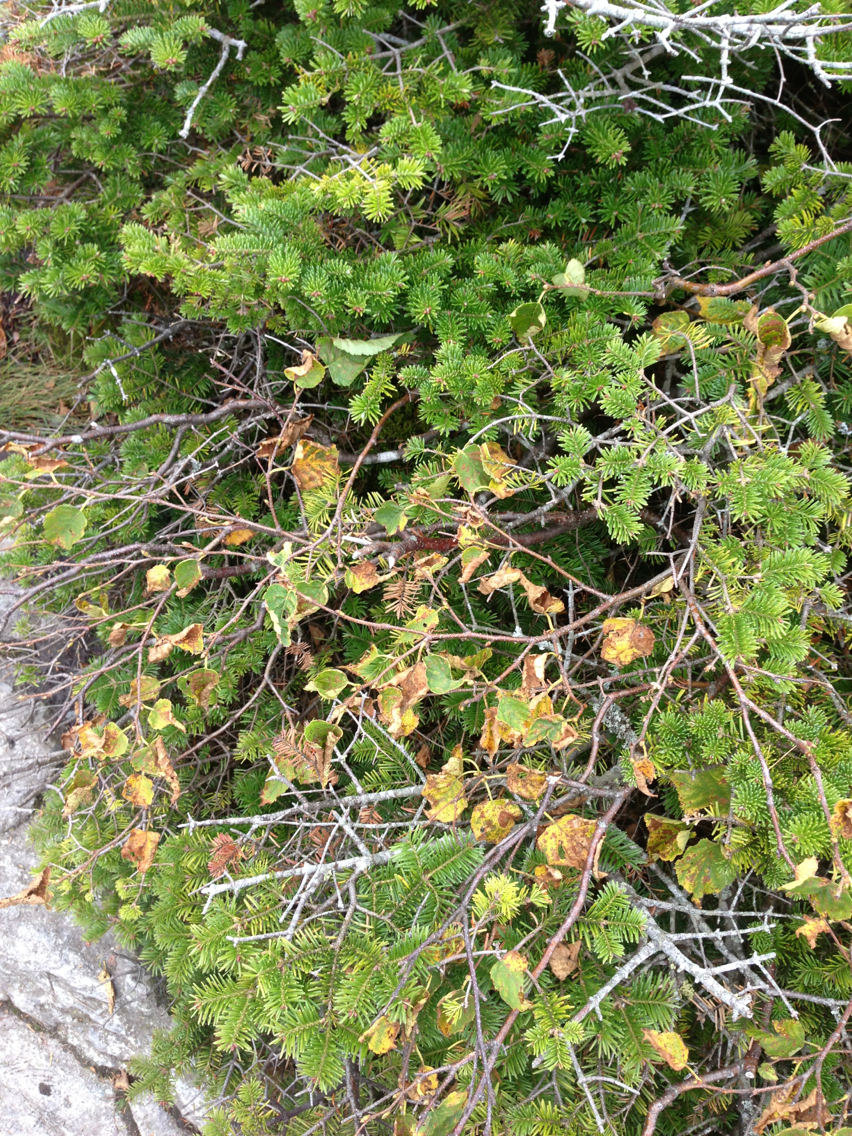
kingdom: Plantae
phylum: Tracheophyta
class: Magnoliopsida
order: Fagales
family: Betulaceae
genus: Betula
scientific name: Betula cordifolia
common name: Mountain white birch
